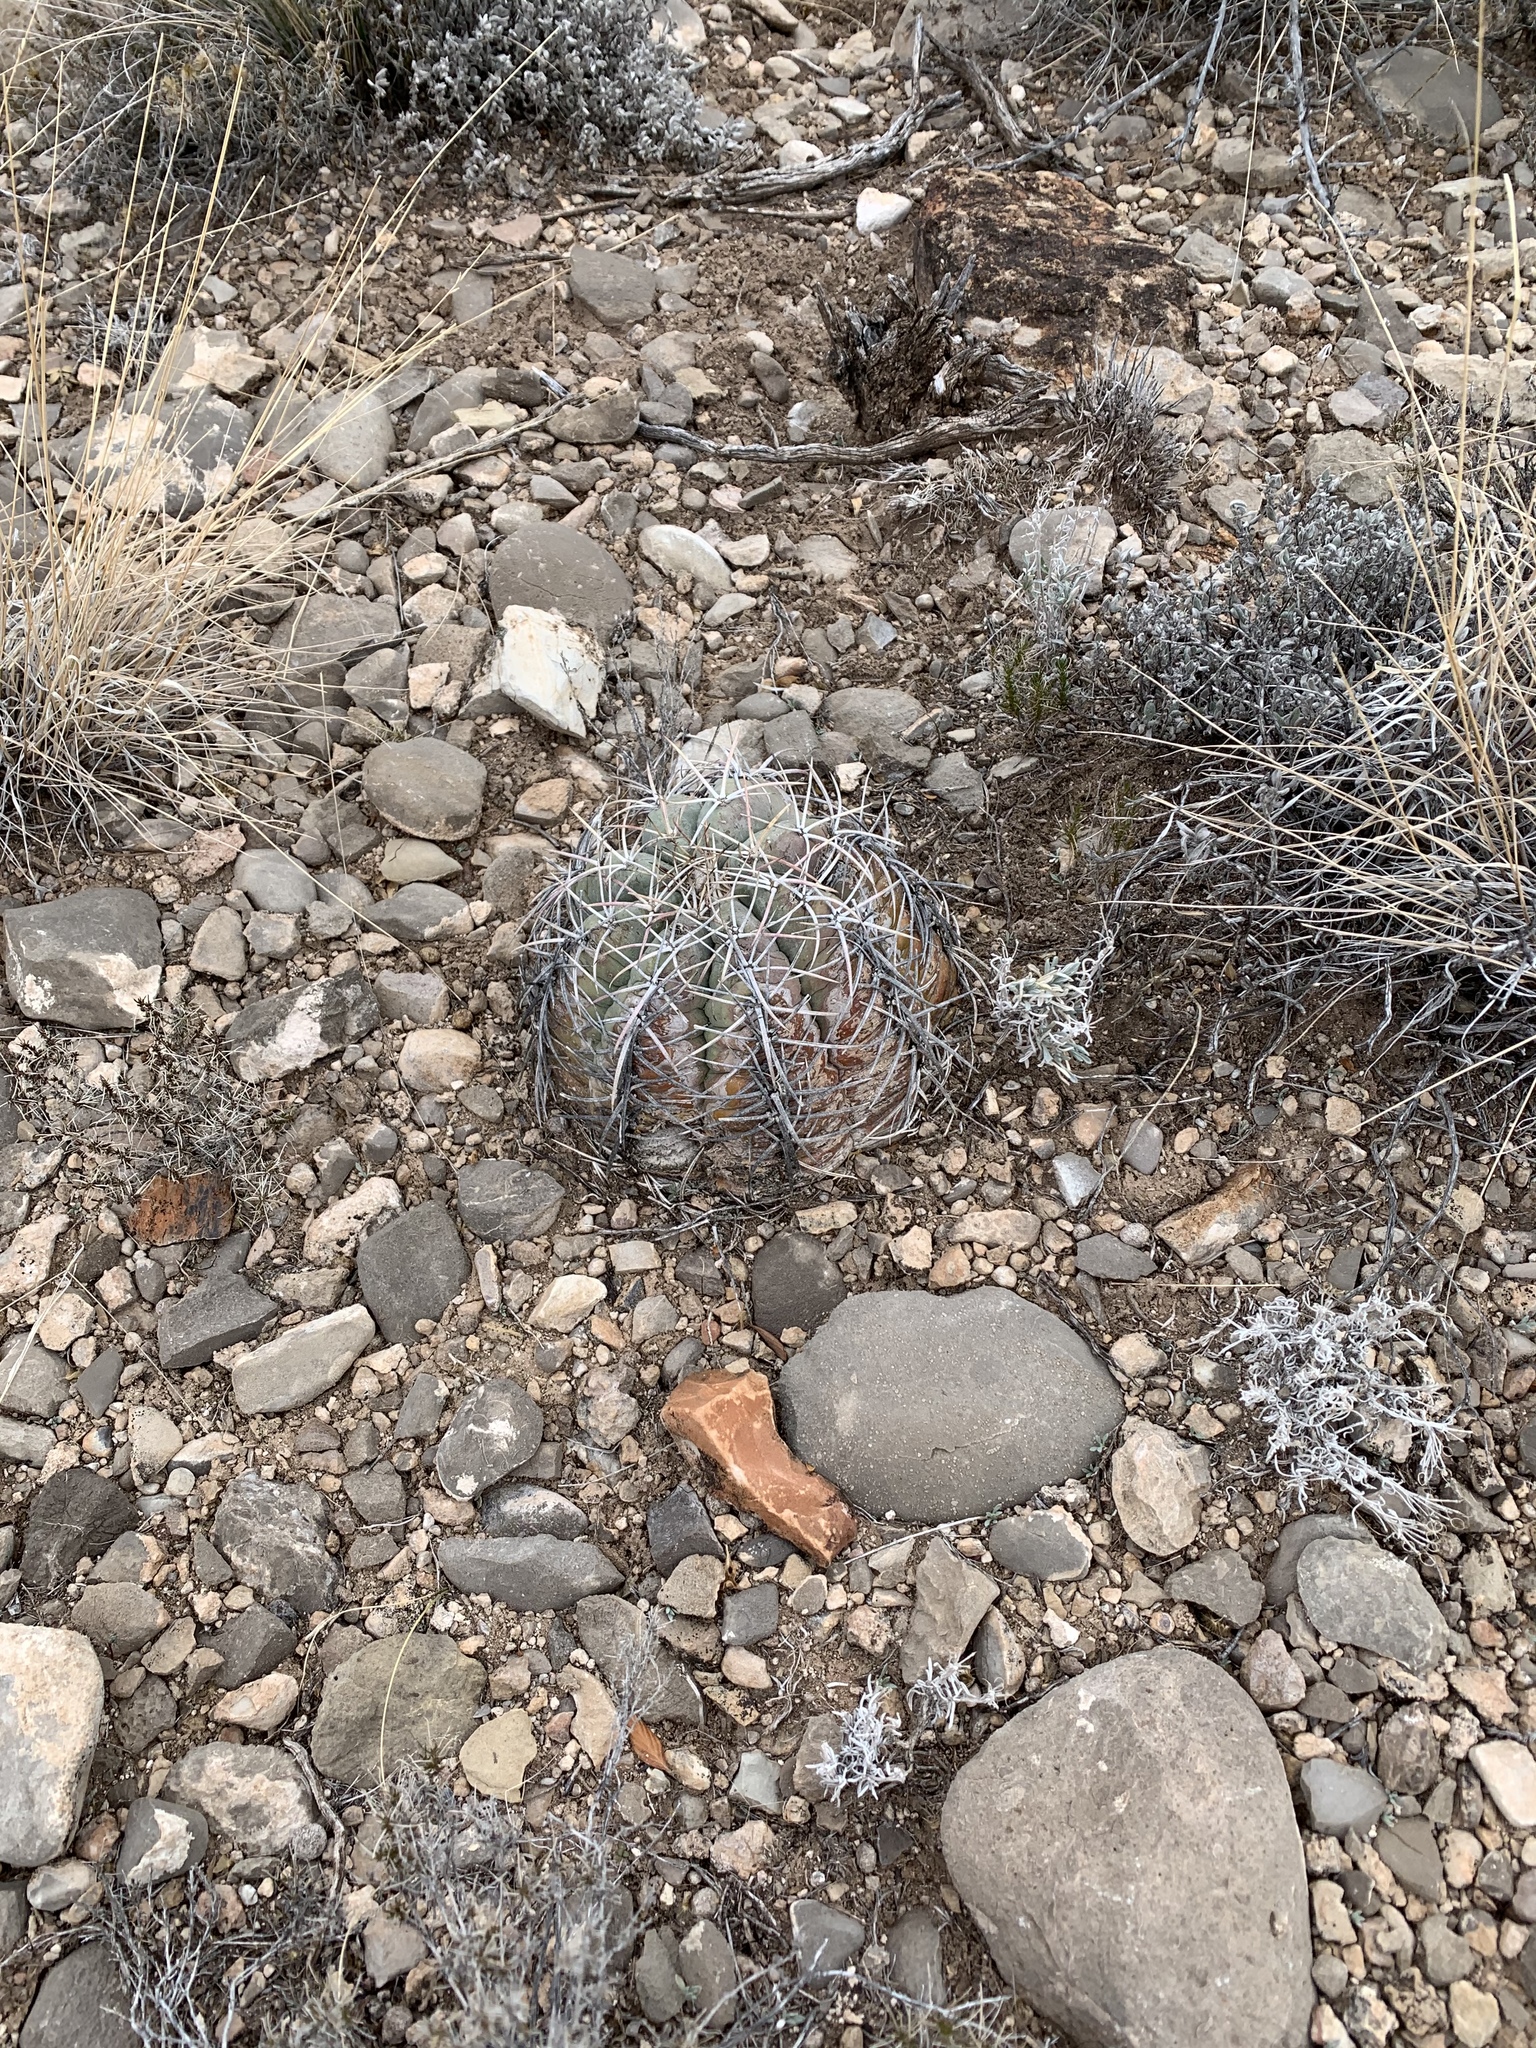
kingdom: Plantae
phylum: Tracheophyta
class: Magnoliopsida
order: Caryophyllales
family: Cactaceae
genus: Echinocactus
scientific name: Echinocactus horizonthalonius
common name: Devilshead
